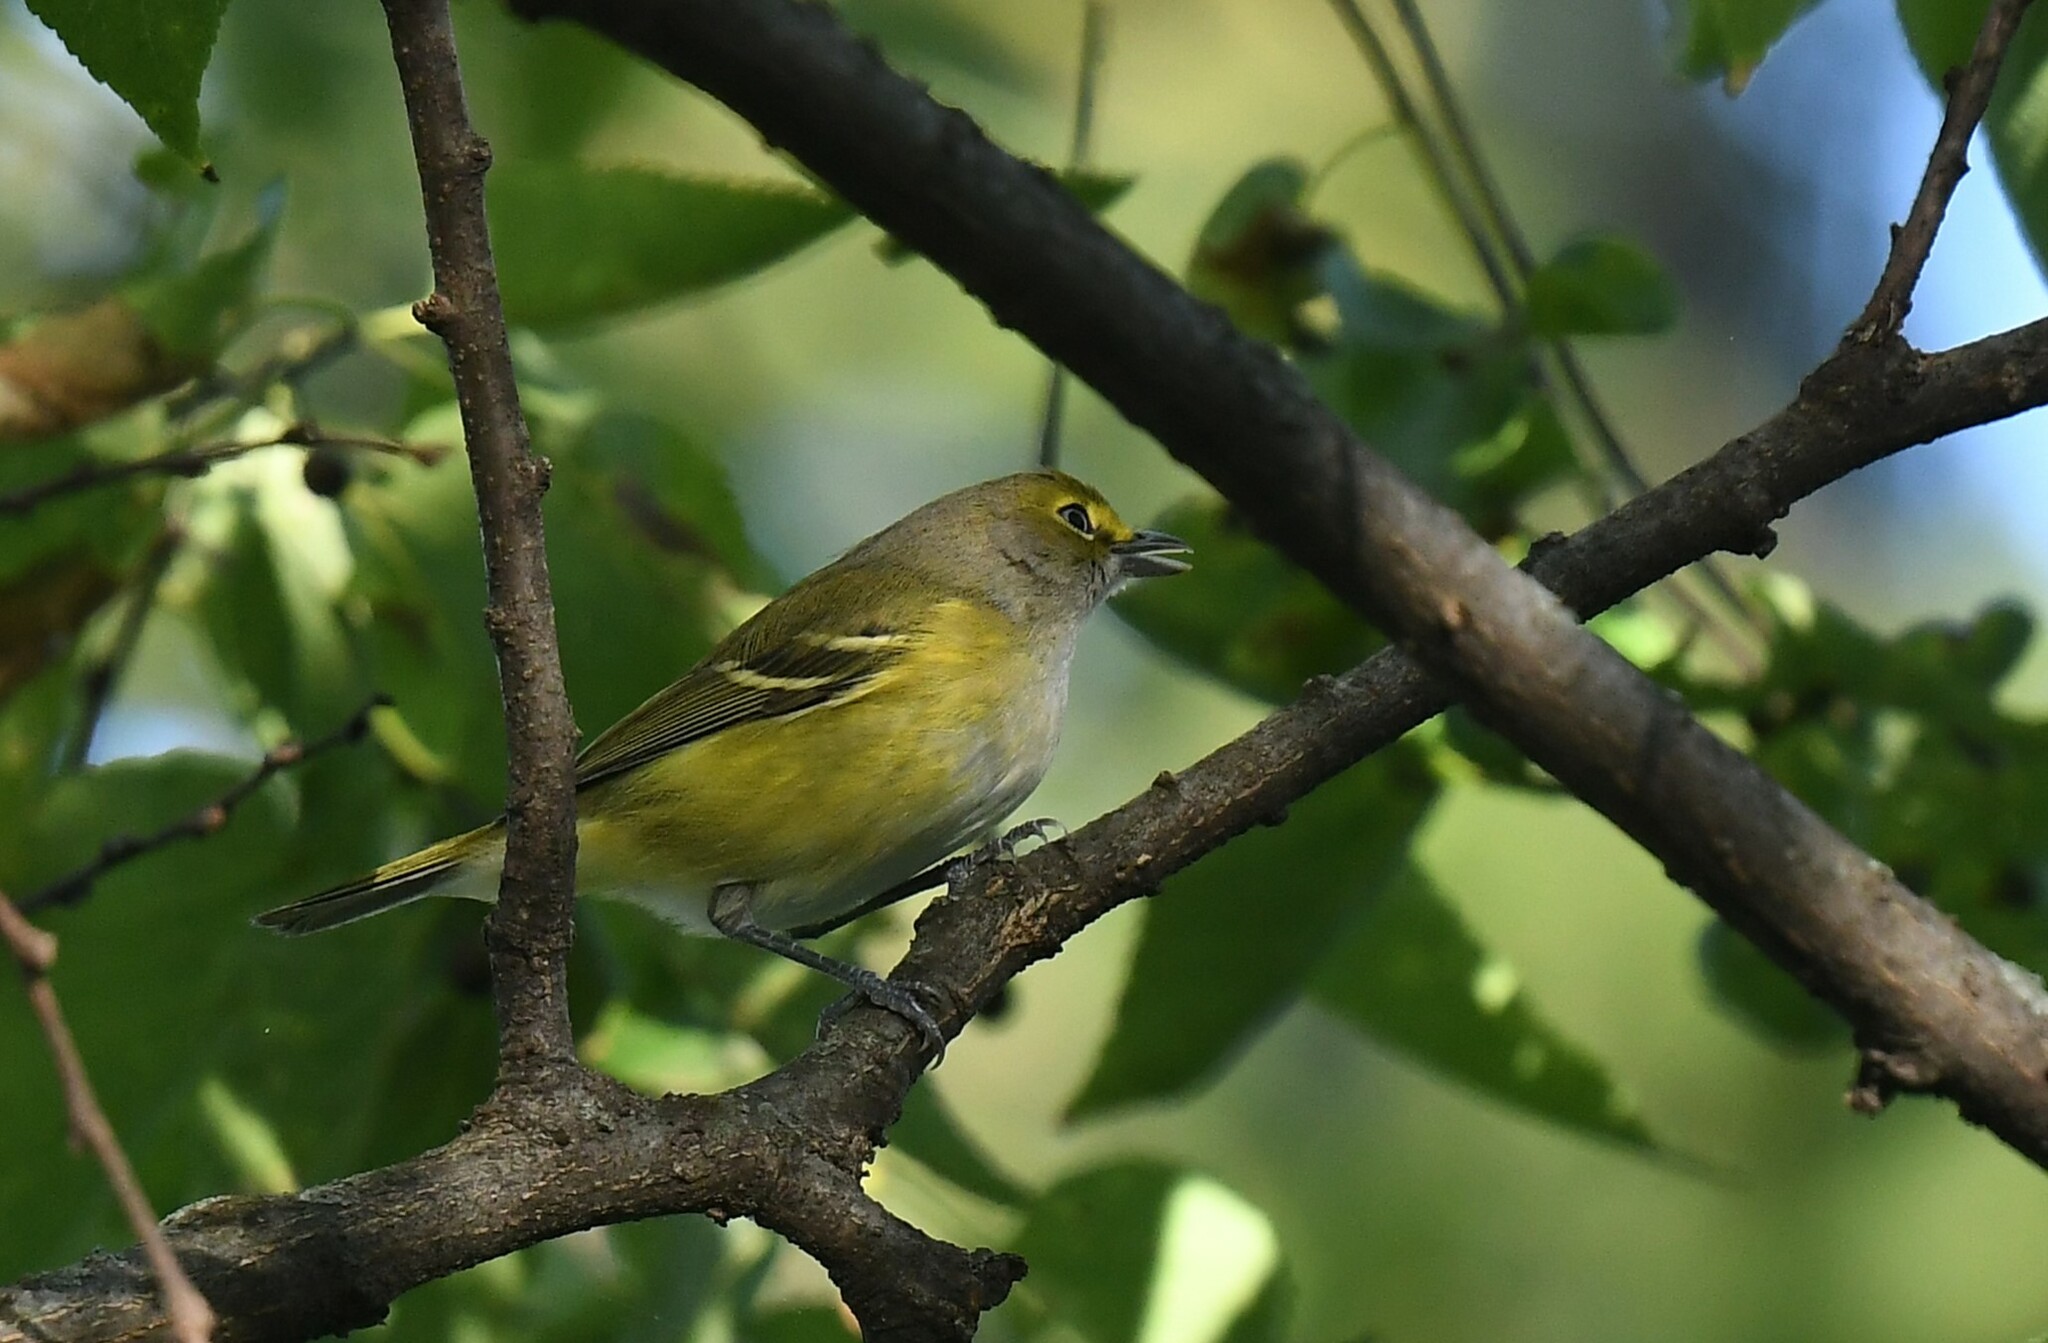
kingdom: Animalia
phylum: Chordata
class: Aves
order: Passeriformes
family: Vireonidae
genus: Vireo
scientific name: Vireo griseus
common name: White-eyed vireo
